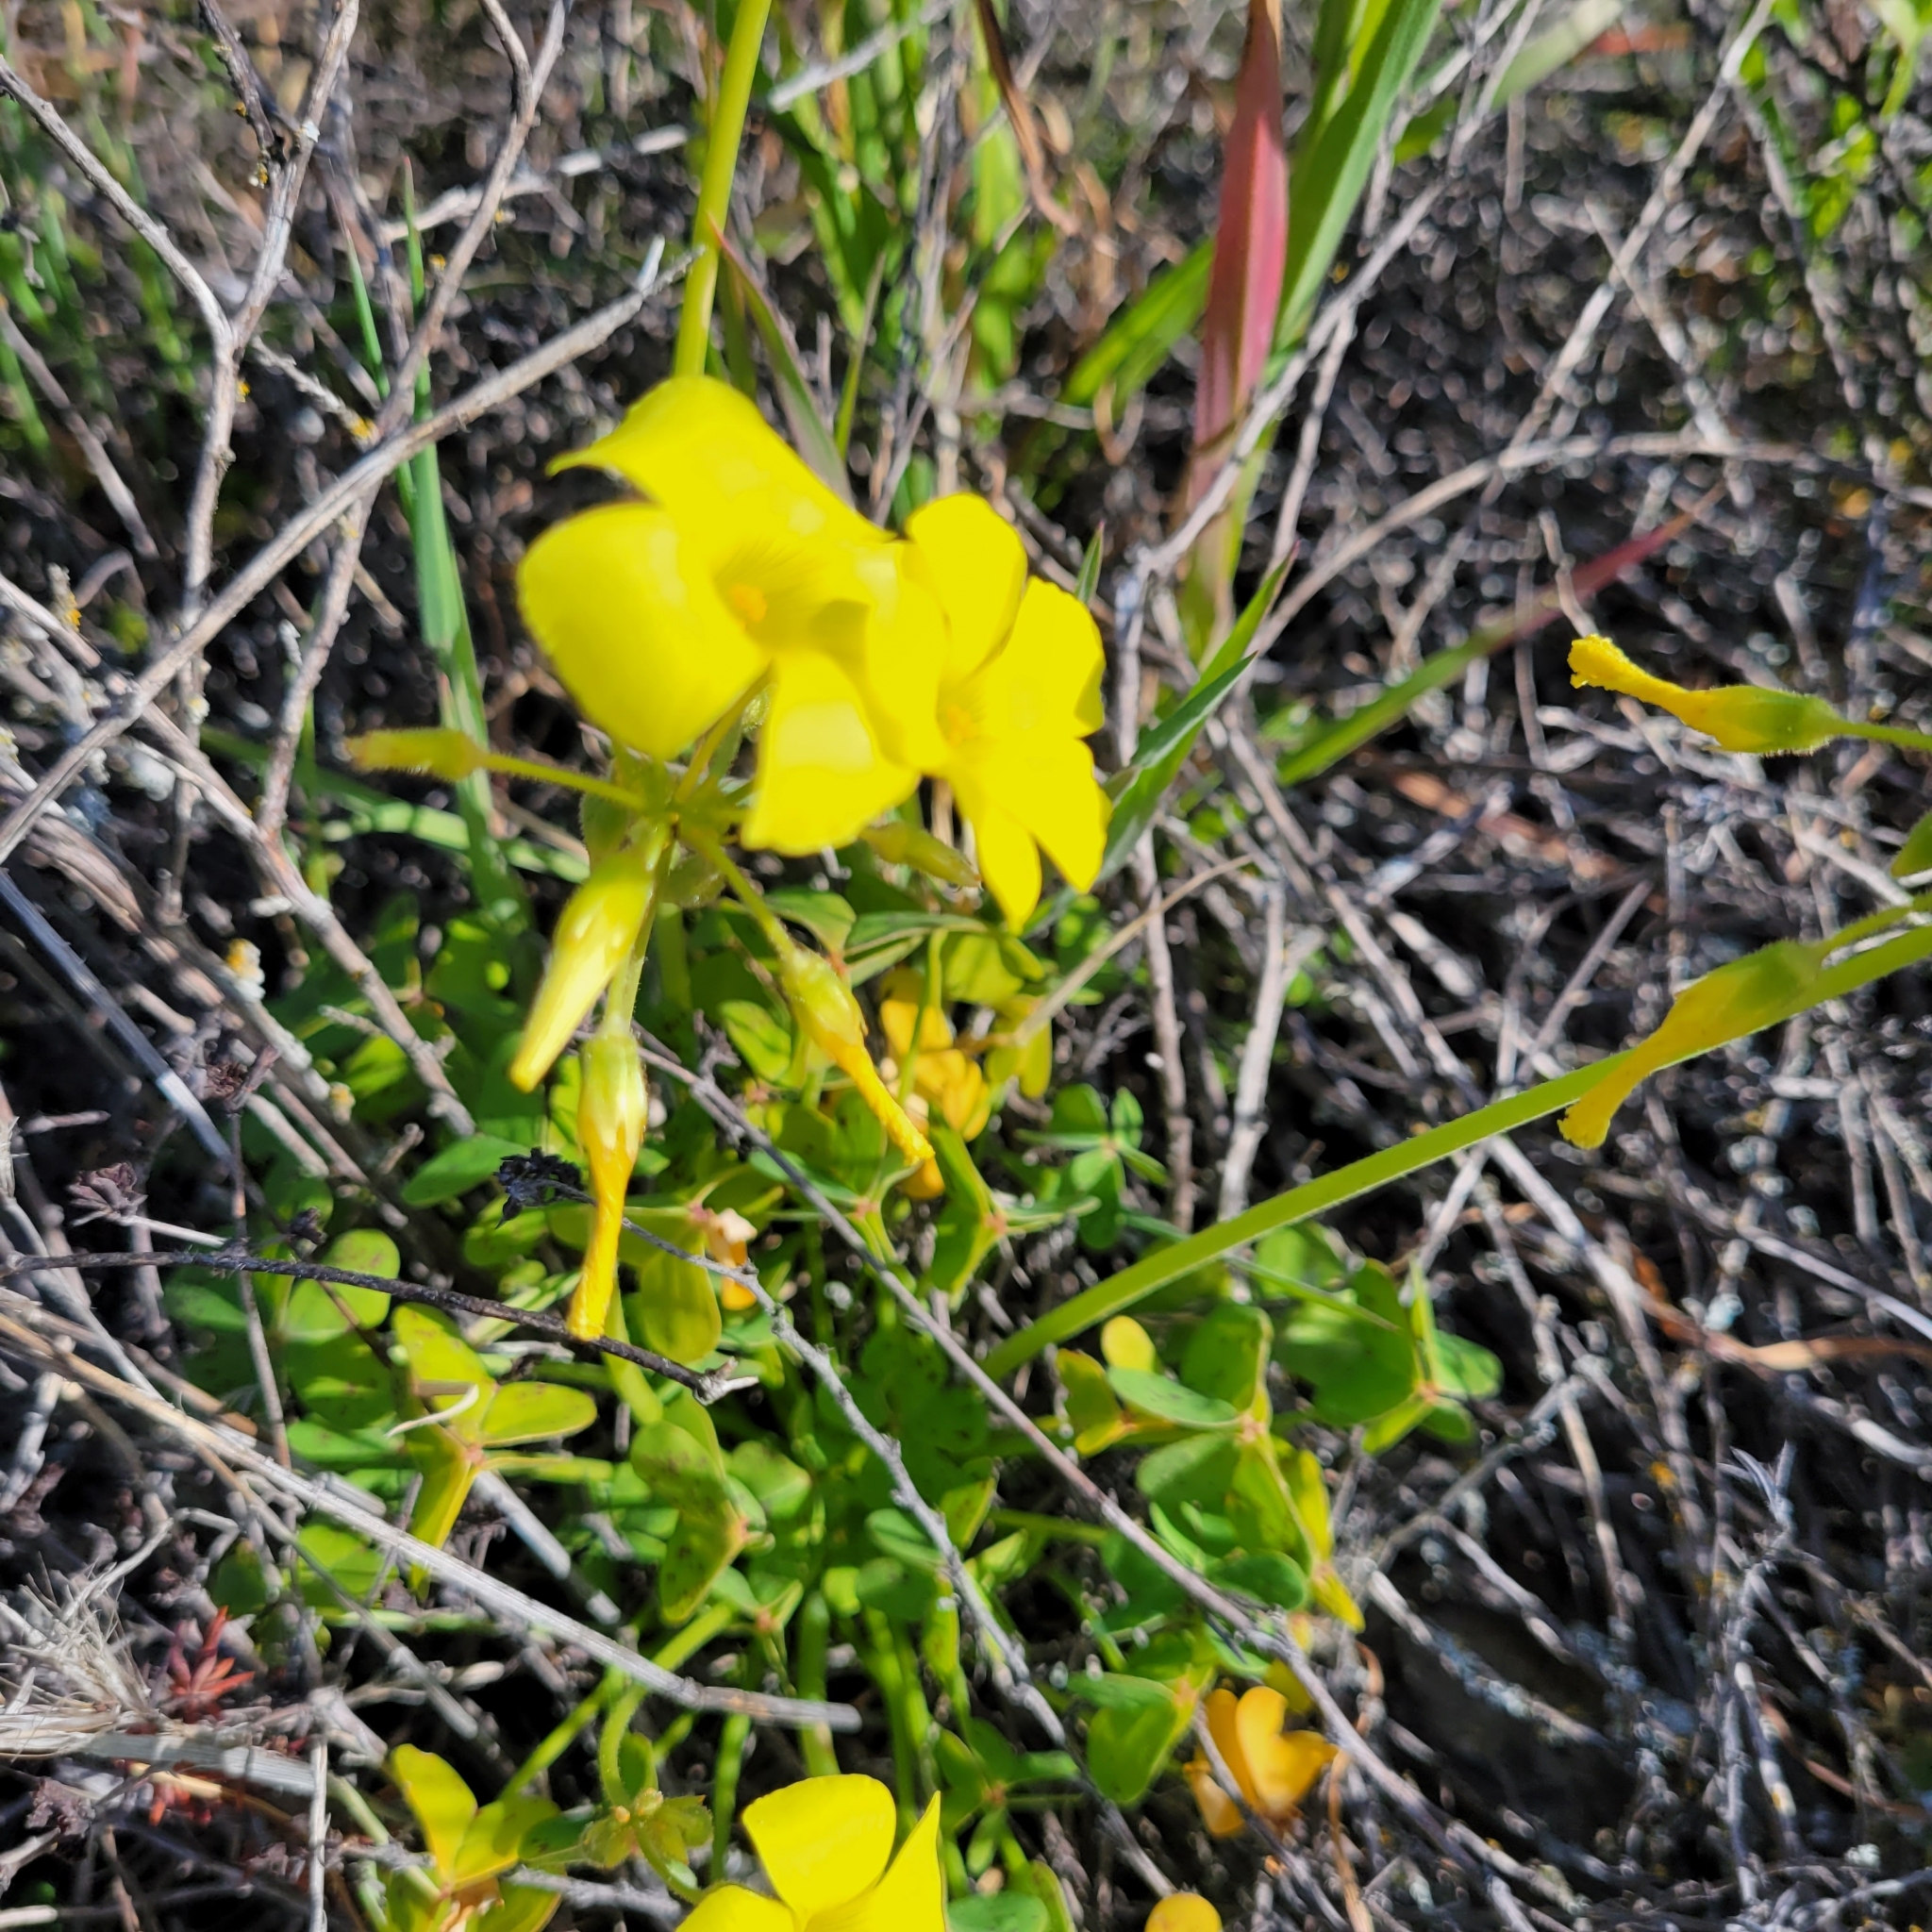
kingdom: Plantae
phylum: Tracheophyta
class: Magnoliopsida
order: Oxalidales
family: Oxalidaceae
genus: Oxalis
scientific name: Oxalis pes-caprae
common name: Bermuda-buttercup
